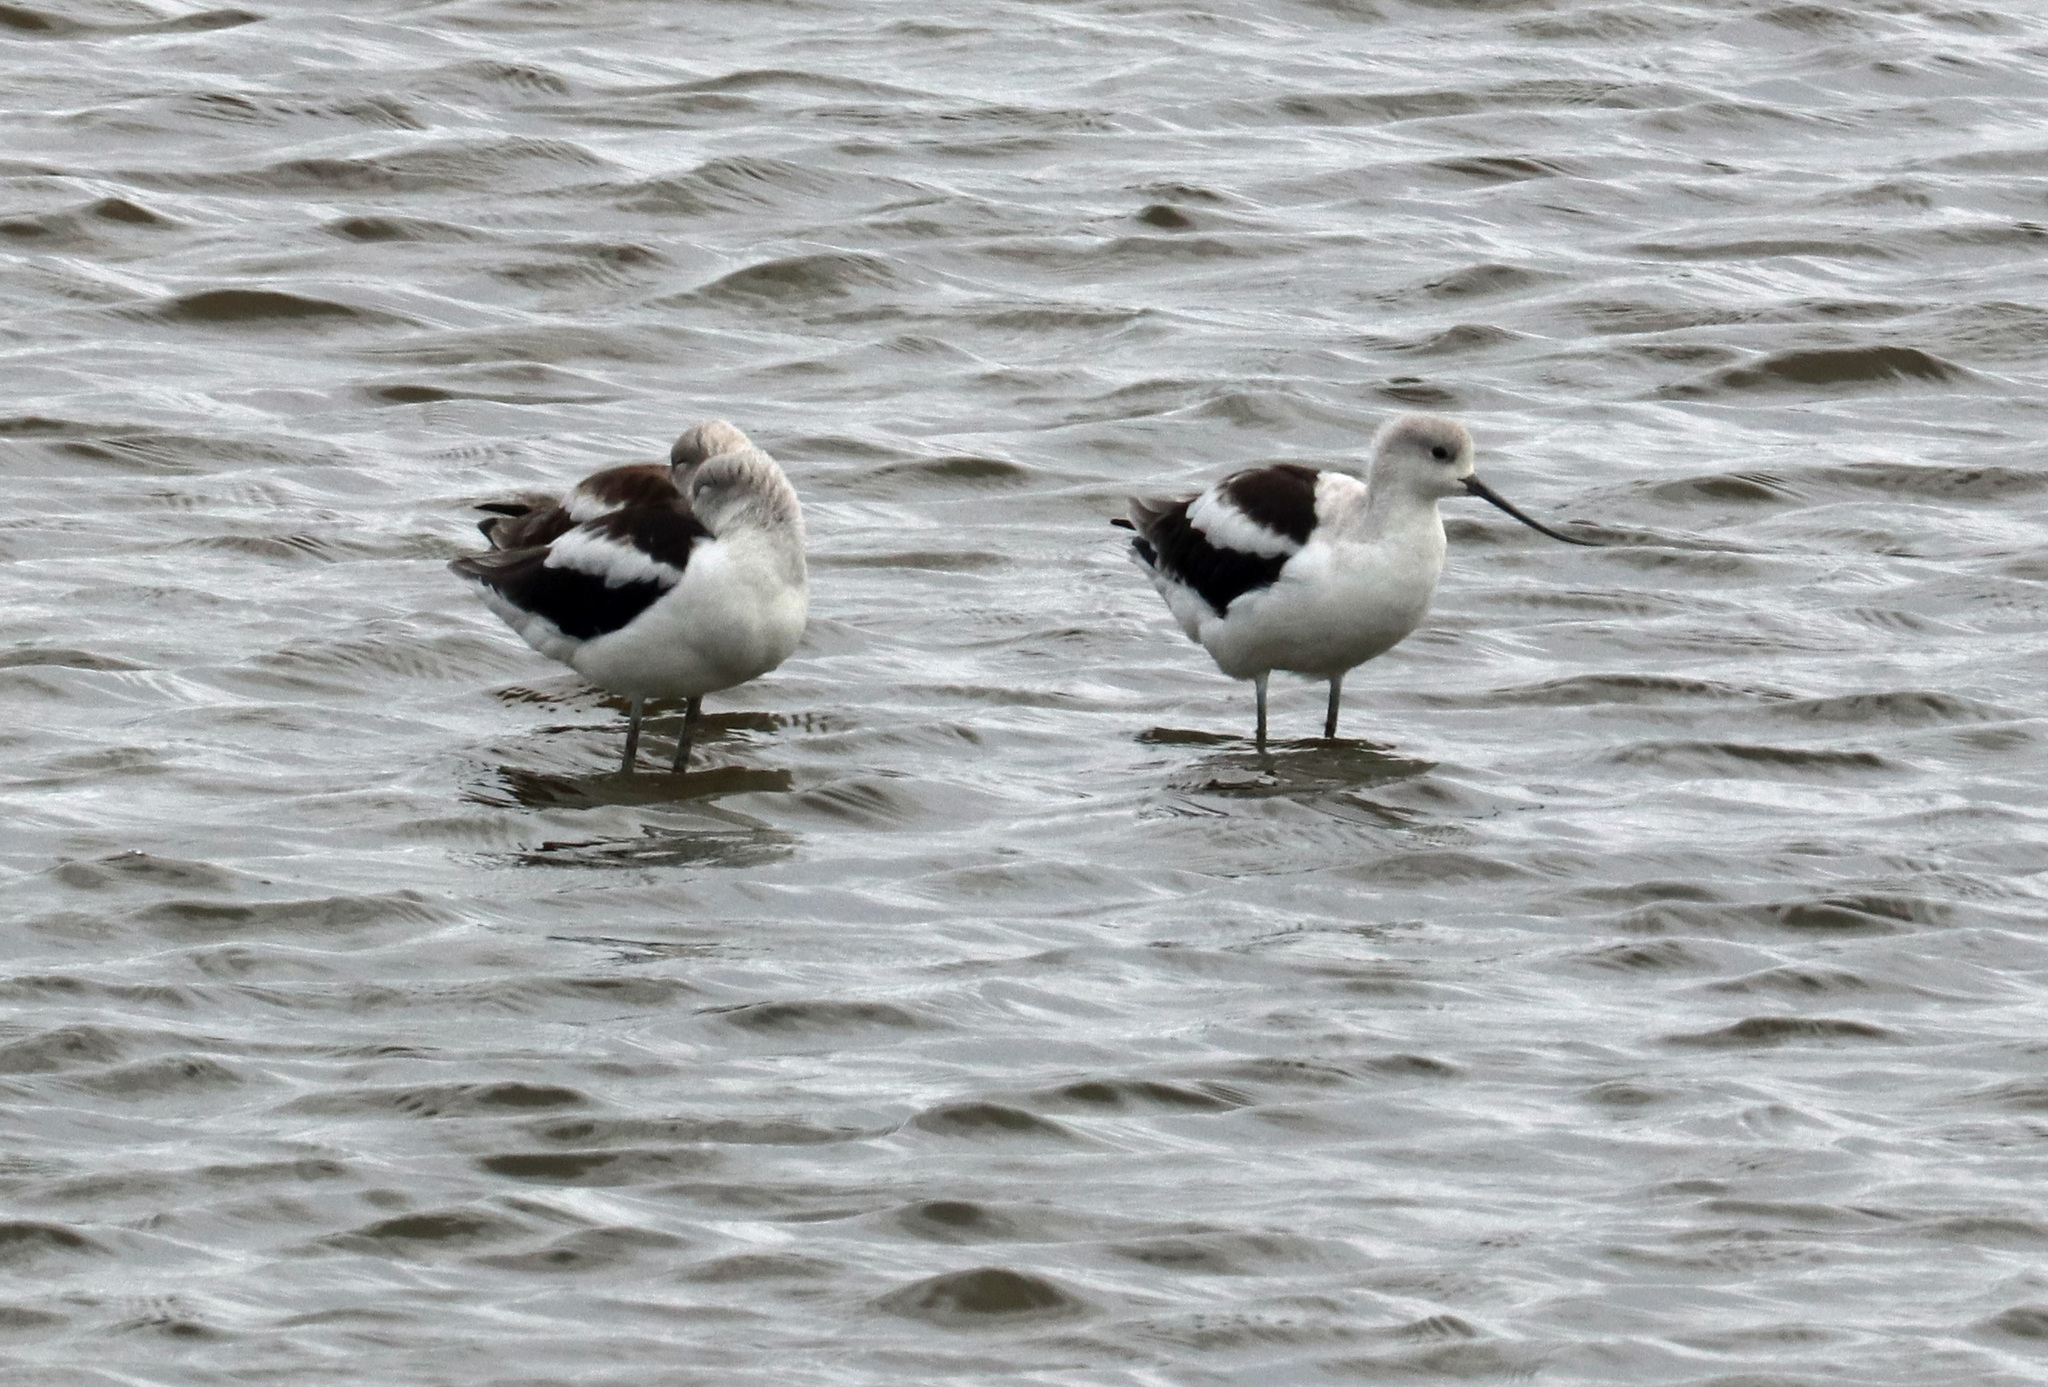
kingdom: Animalia
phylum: Chordata
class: Aves
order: Charadriiformes
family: Recurvirostridae
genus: Recurvirostra
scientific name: Recurvirostra americana
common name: American avocet
